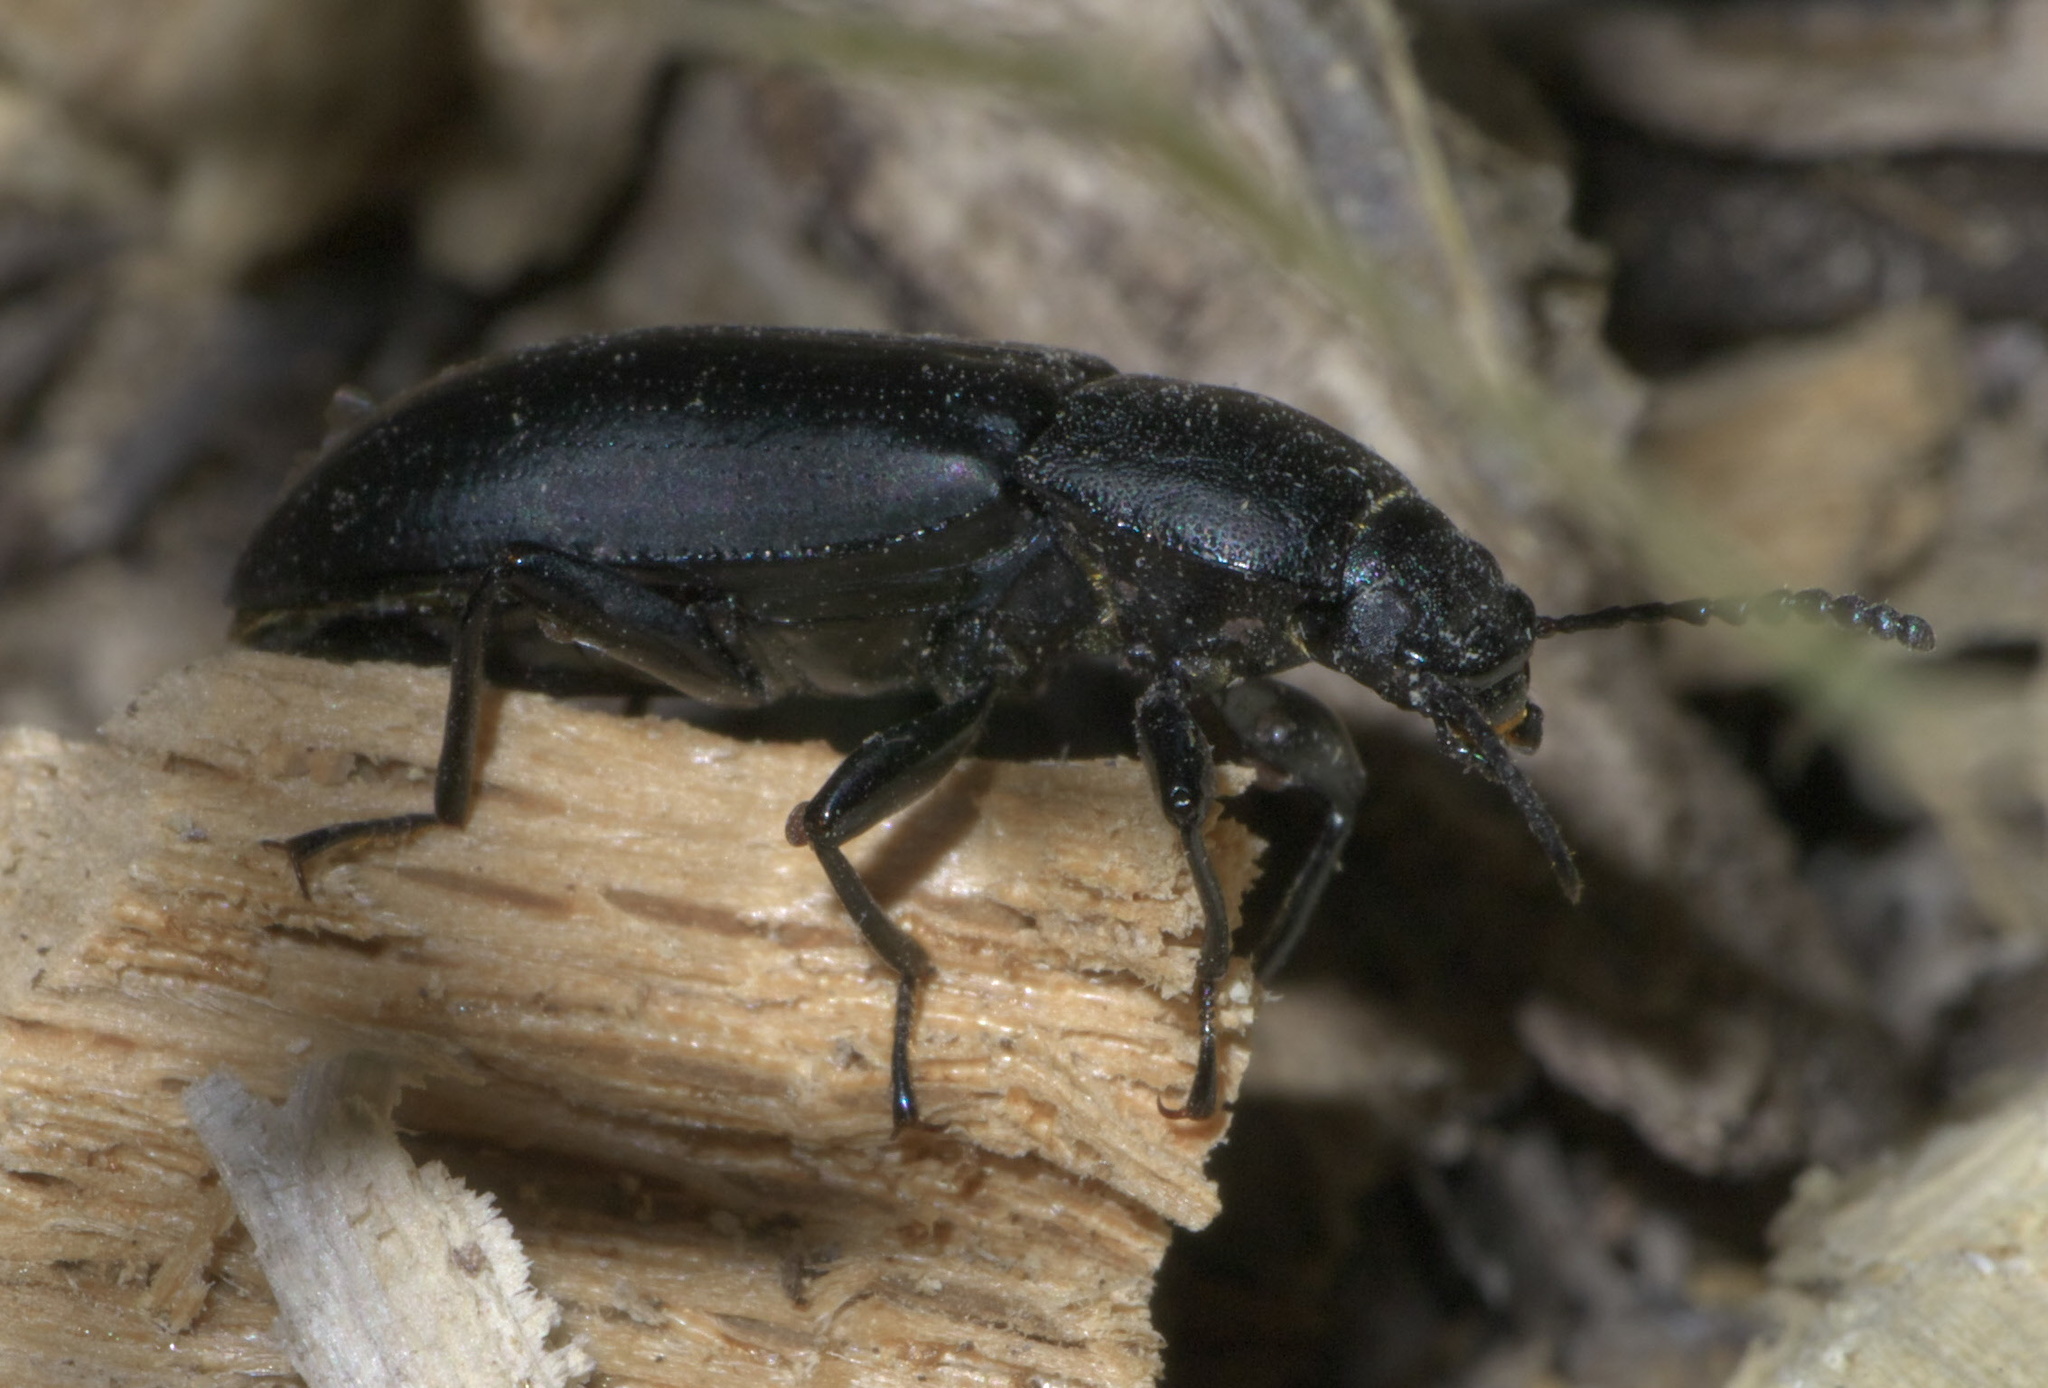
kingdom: Animalia
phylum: Arthropoda
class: Insecta
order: Coleoptera
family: Tenebrionidae
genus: Centronopus
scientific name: Centronopus opacus
